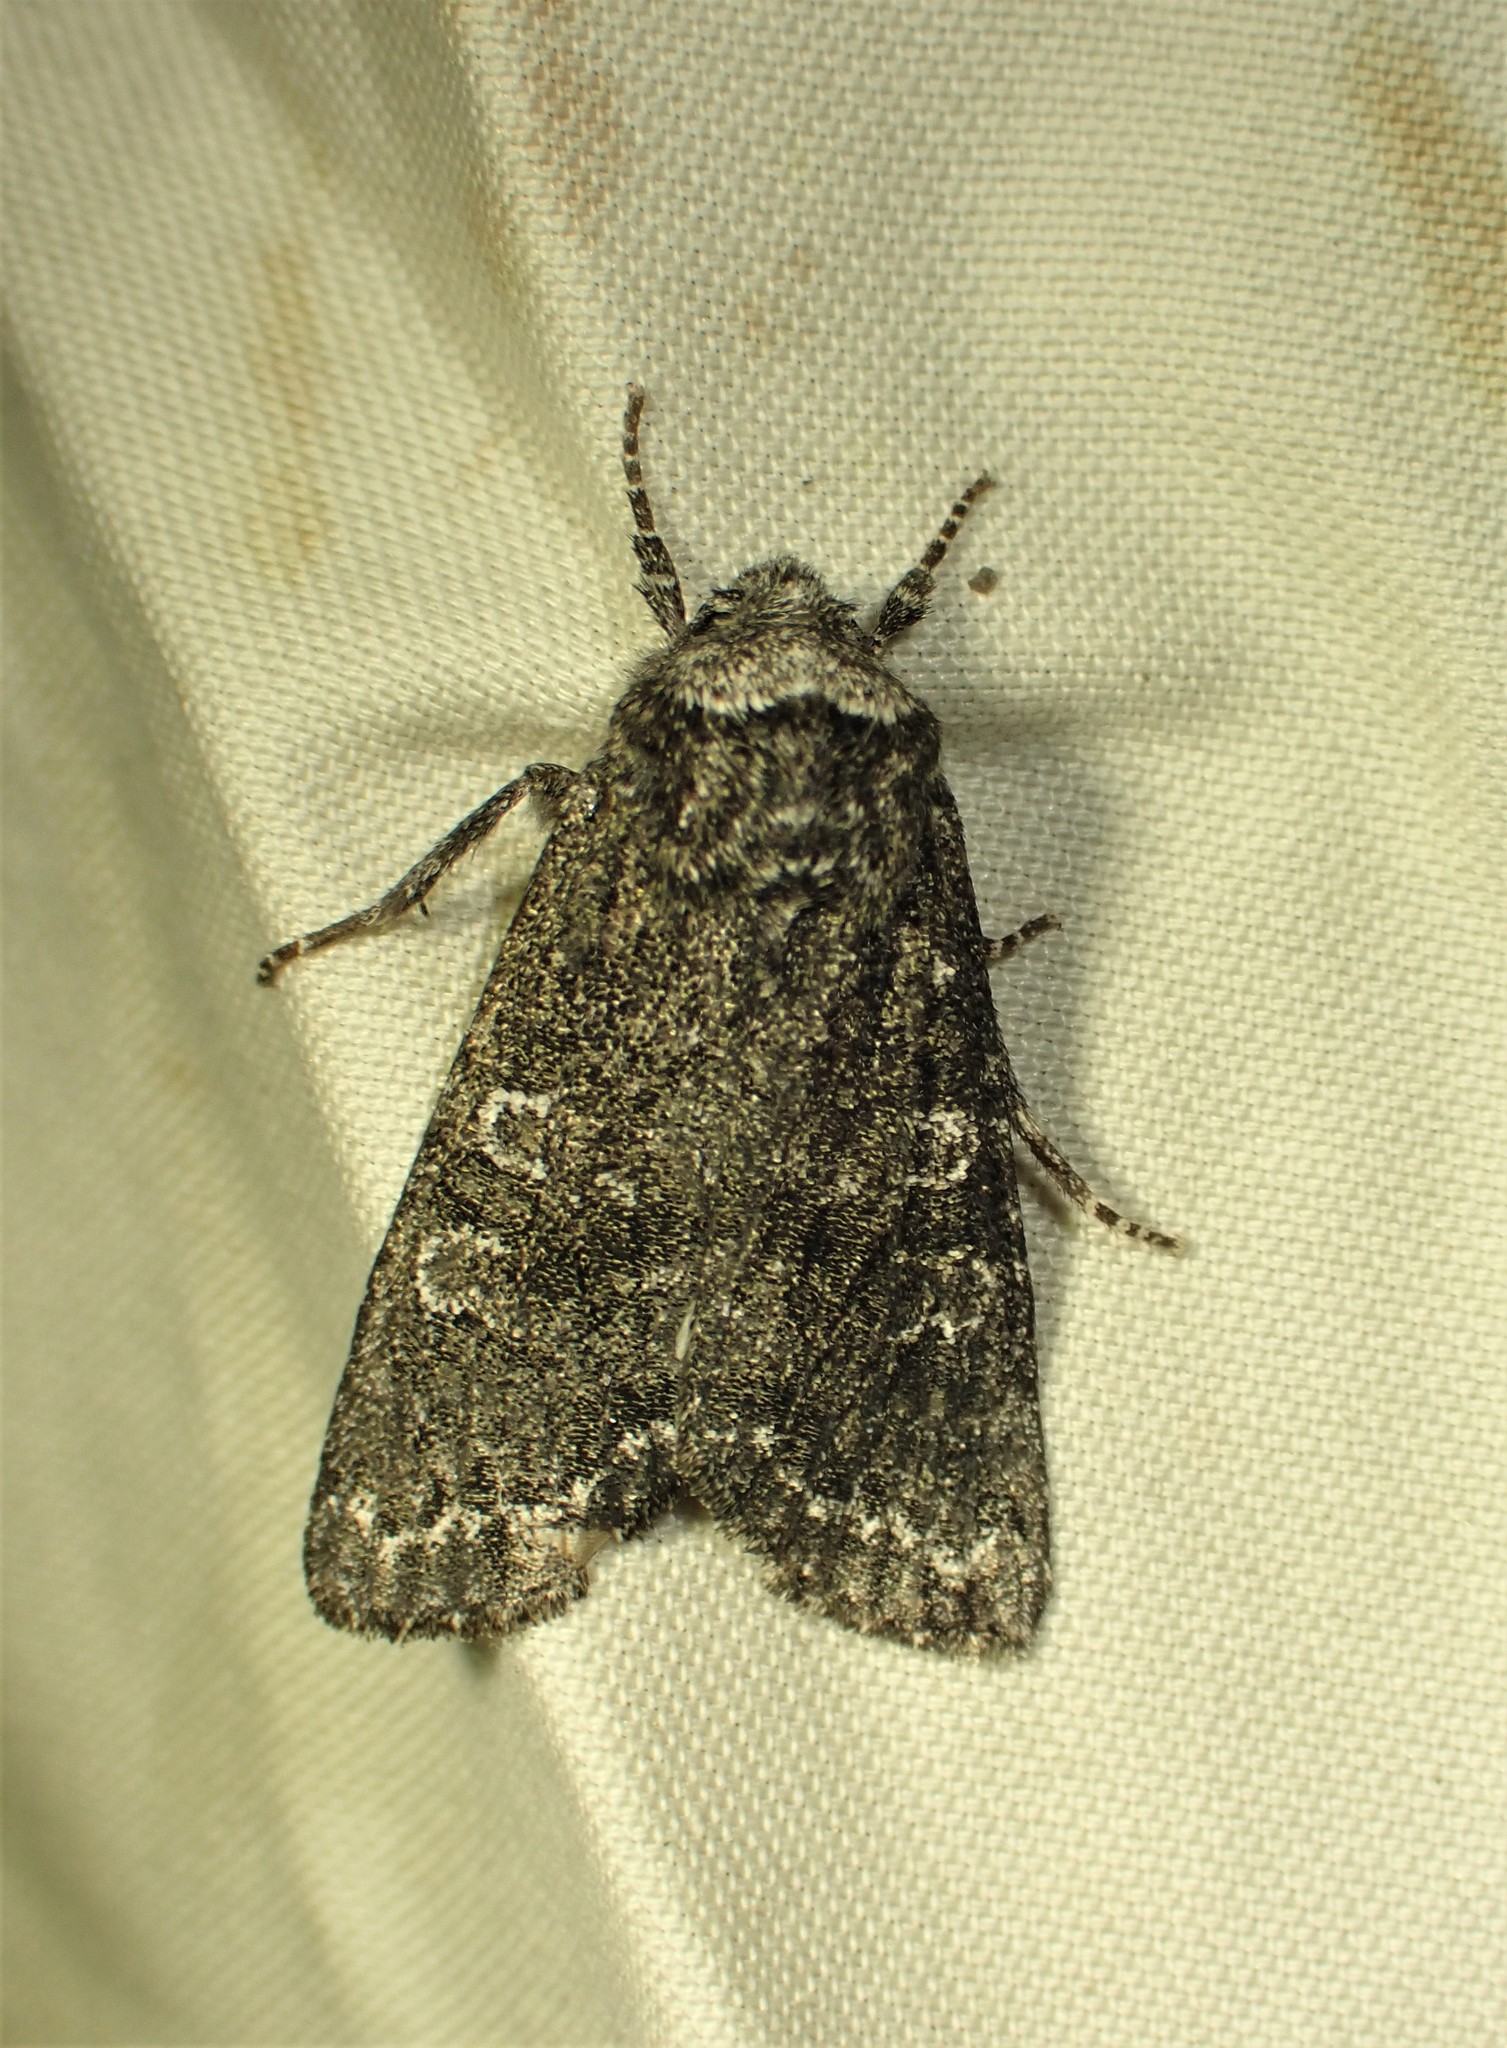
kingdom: Animalia
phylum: Arthropoda
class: Insecta
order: Lepidoptera
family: Noctuidae
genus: Egira
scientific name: Egira dolosa
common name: Lined black aspen cat.
